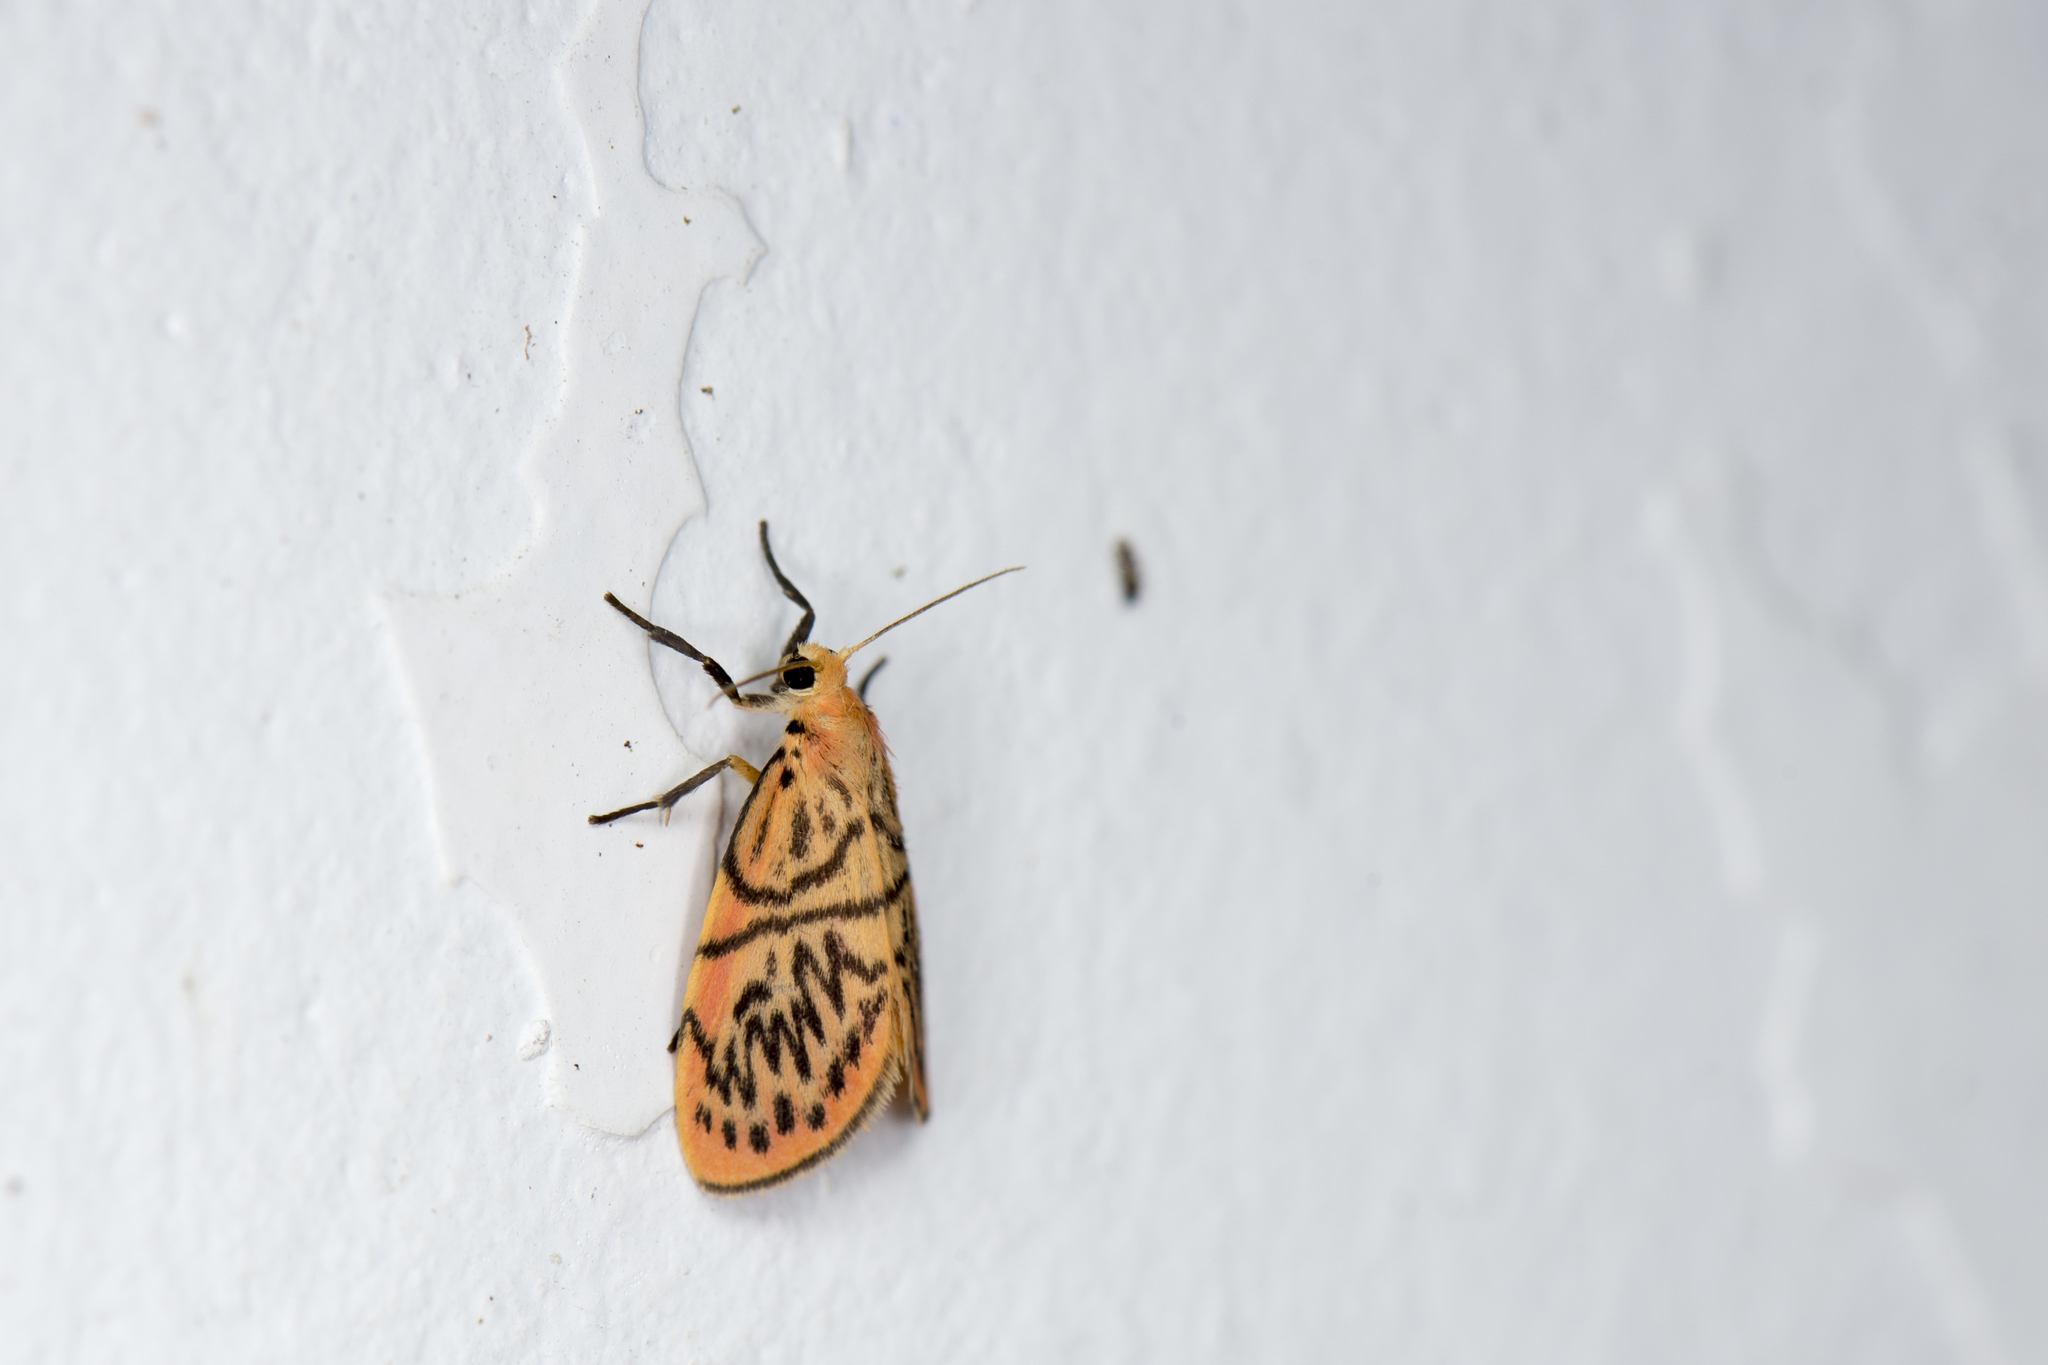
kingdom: Animalia
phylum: Arthropoda
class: Insecta
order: Lepidoptera
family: Erebidae
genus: Sesapa
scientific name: Sesapa koshunica
